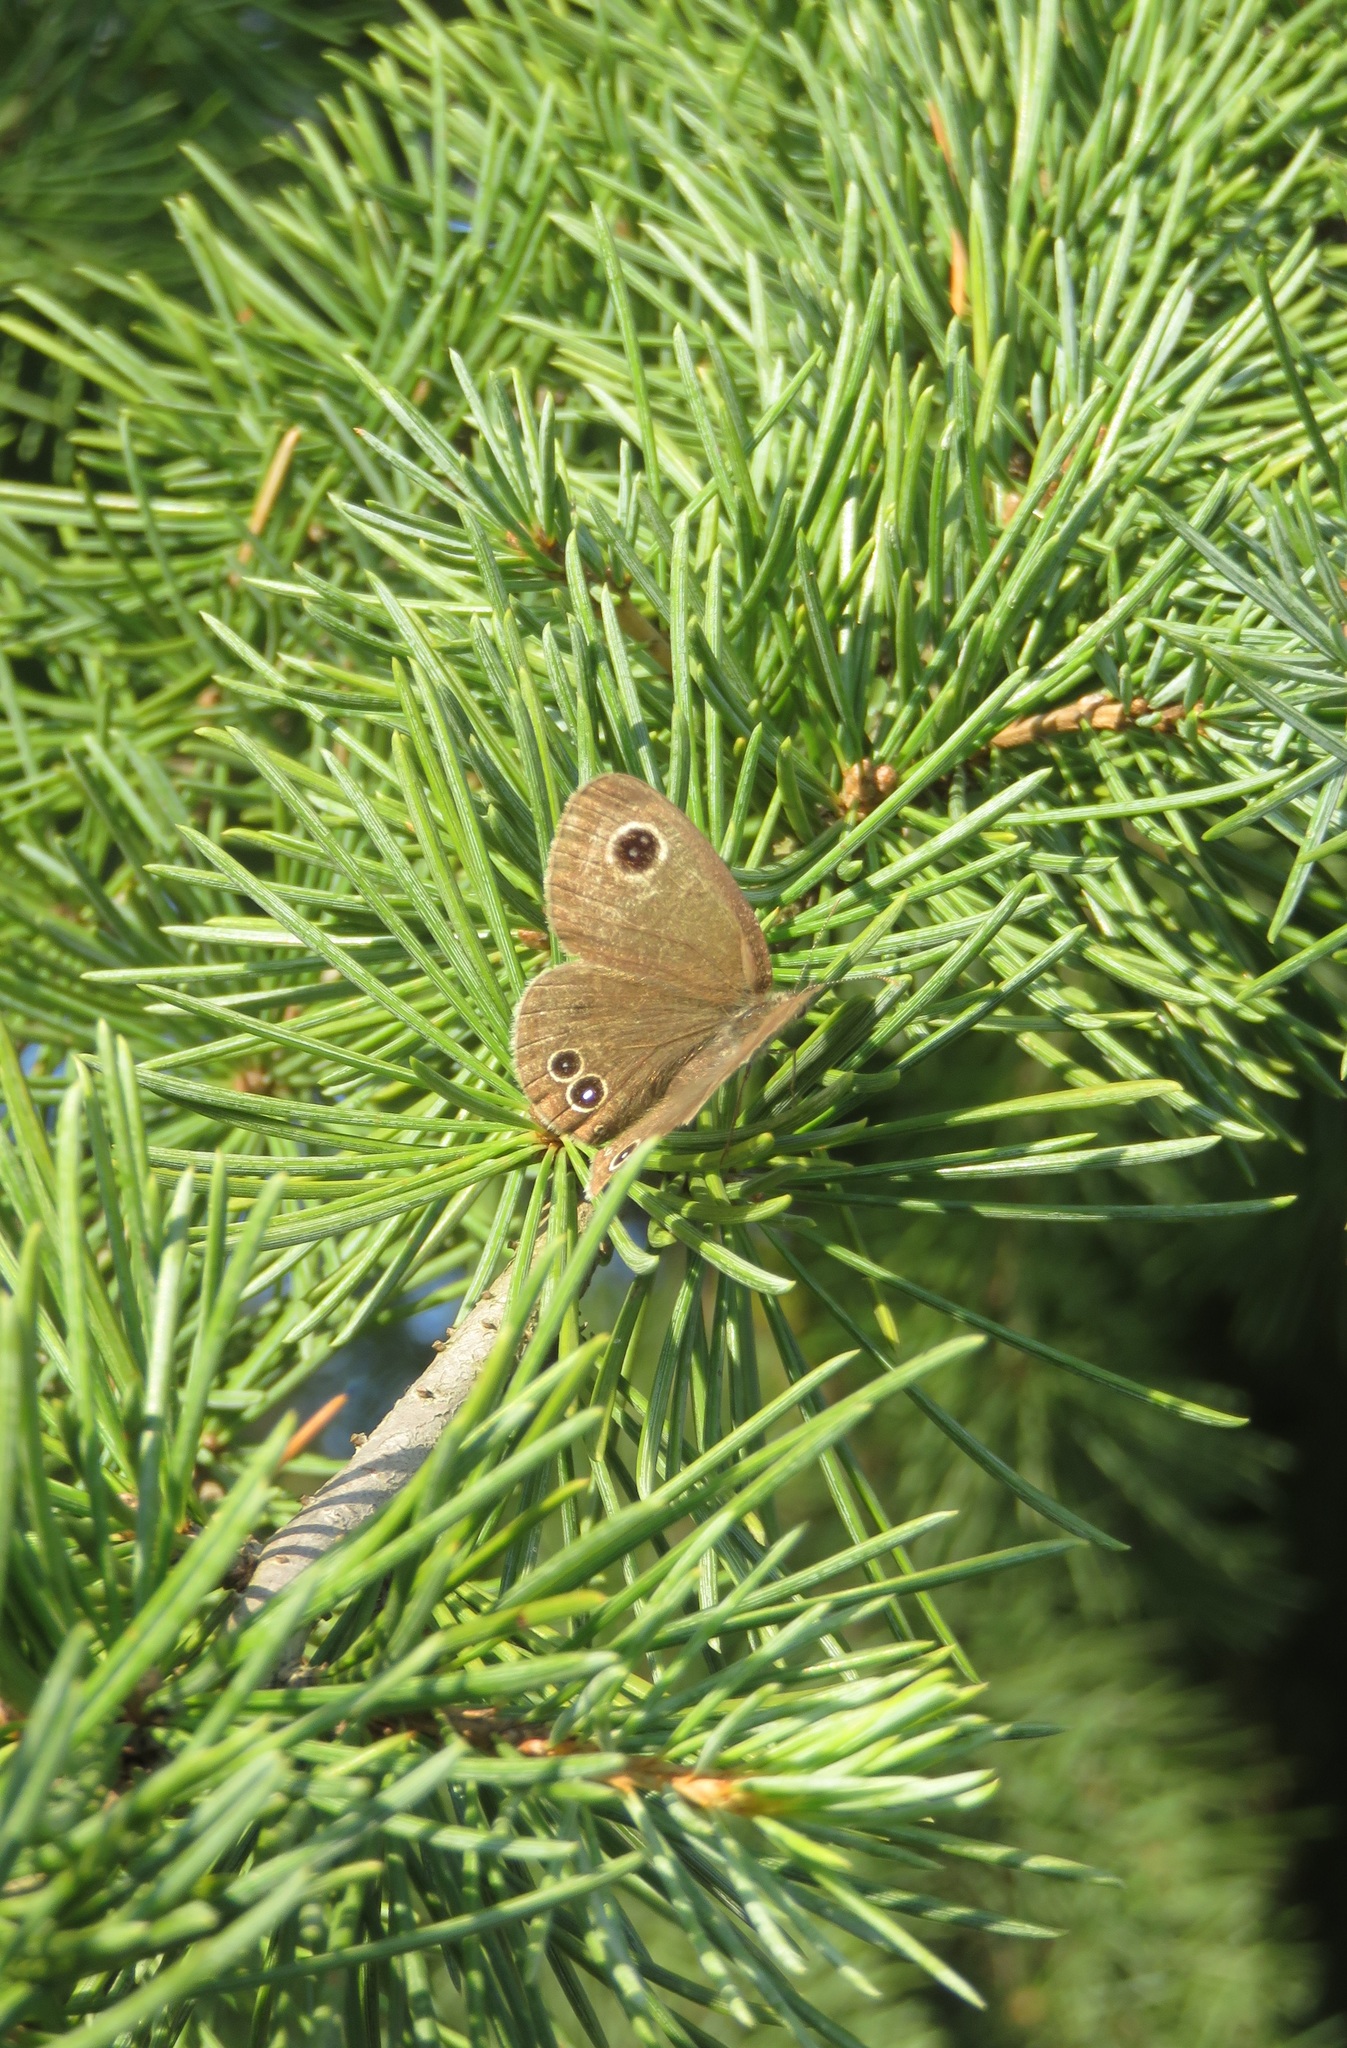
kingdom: Animalia
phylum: Arthropoda
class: Insecta
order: Lepidoptera
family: Nymphalidae
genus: Ypthima
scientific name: Ypthima argus
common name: Common fivering
